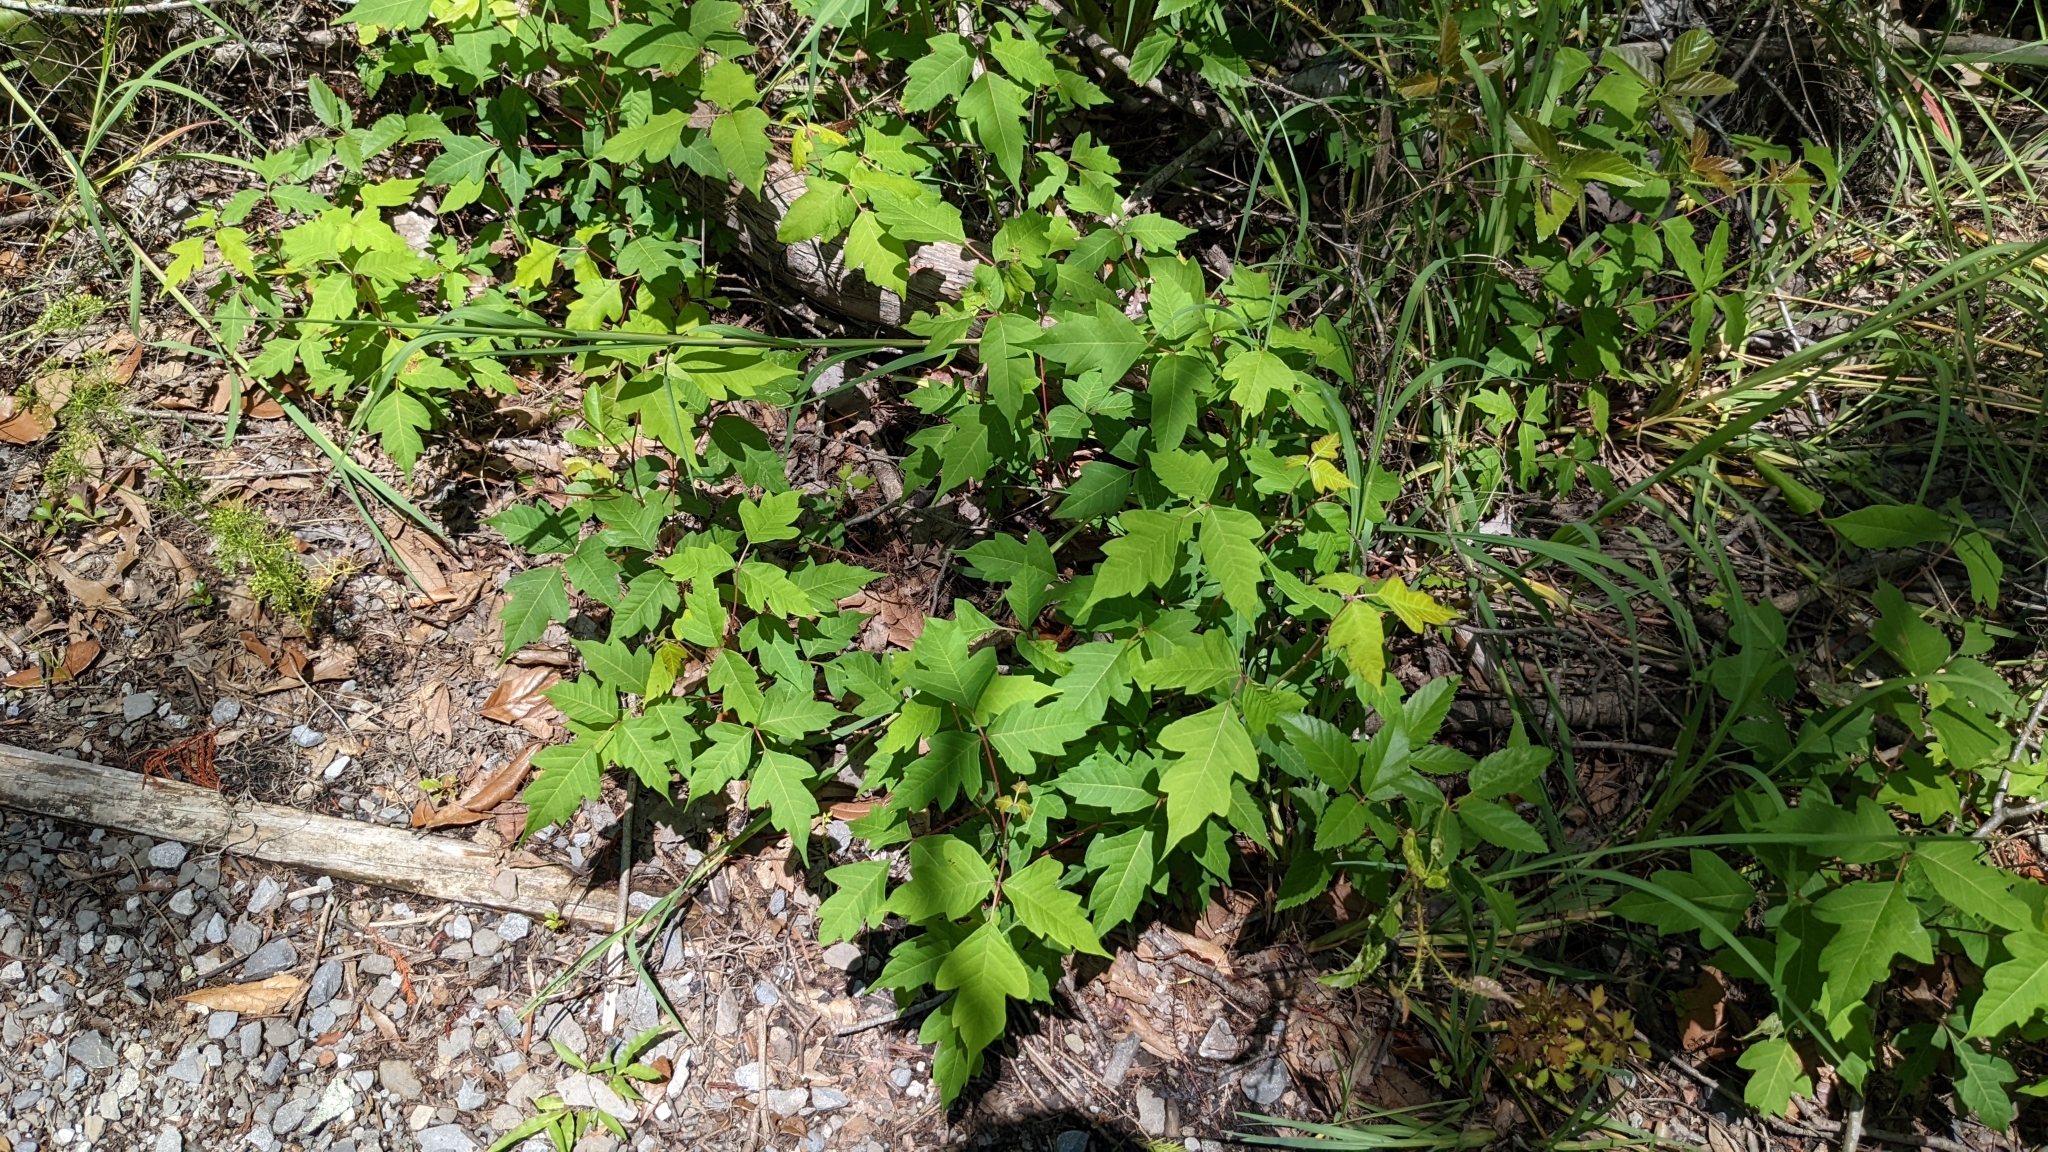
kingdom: Plantae
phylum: Tracheophyta
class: Magnoliopsida
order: Sapindales
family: Anacardiaceae
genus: Toxicodendron
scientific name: Toxicodendron radicans
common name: Poison ivy
